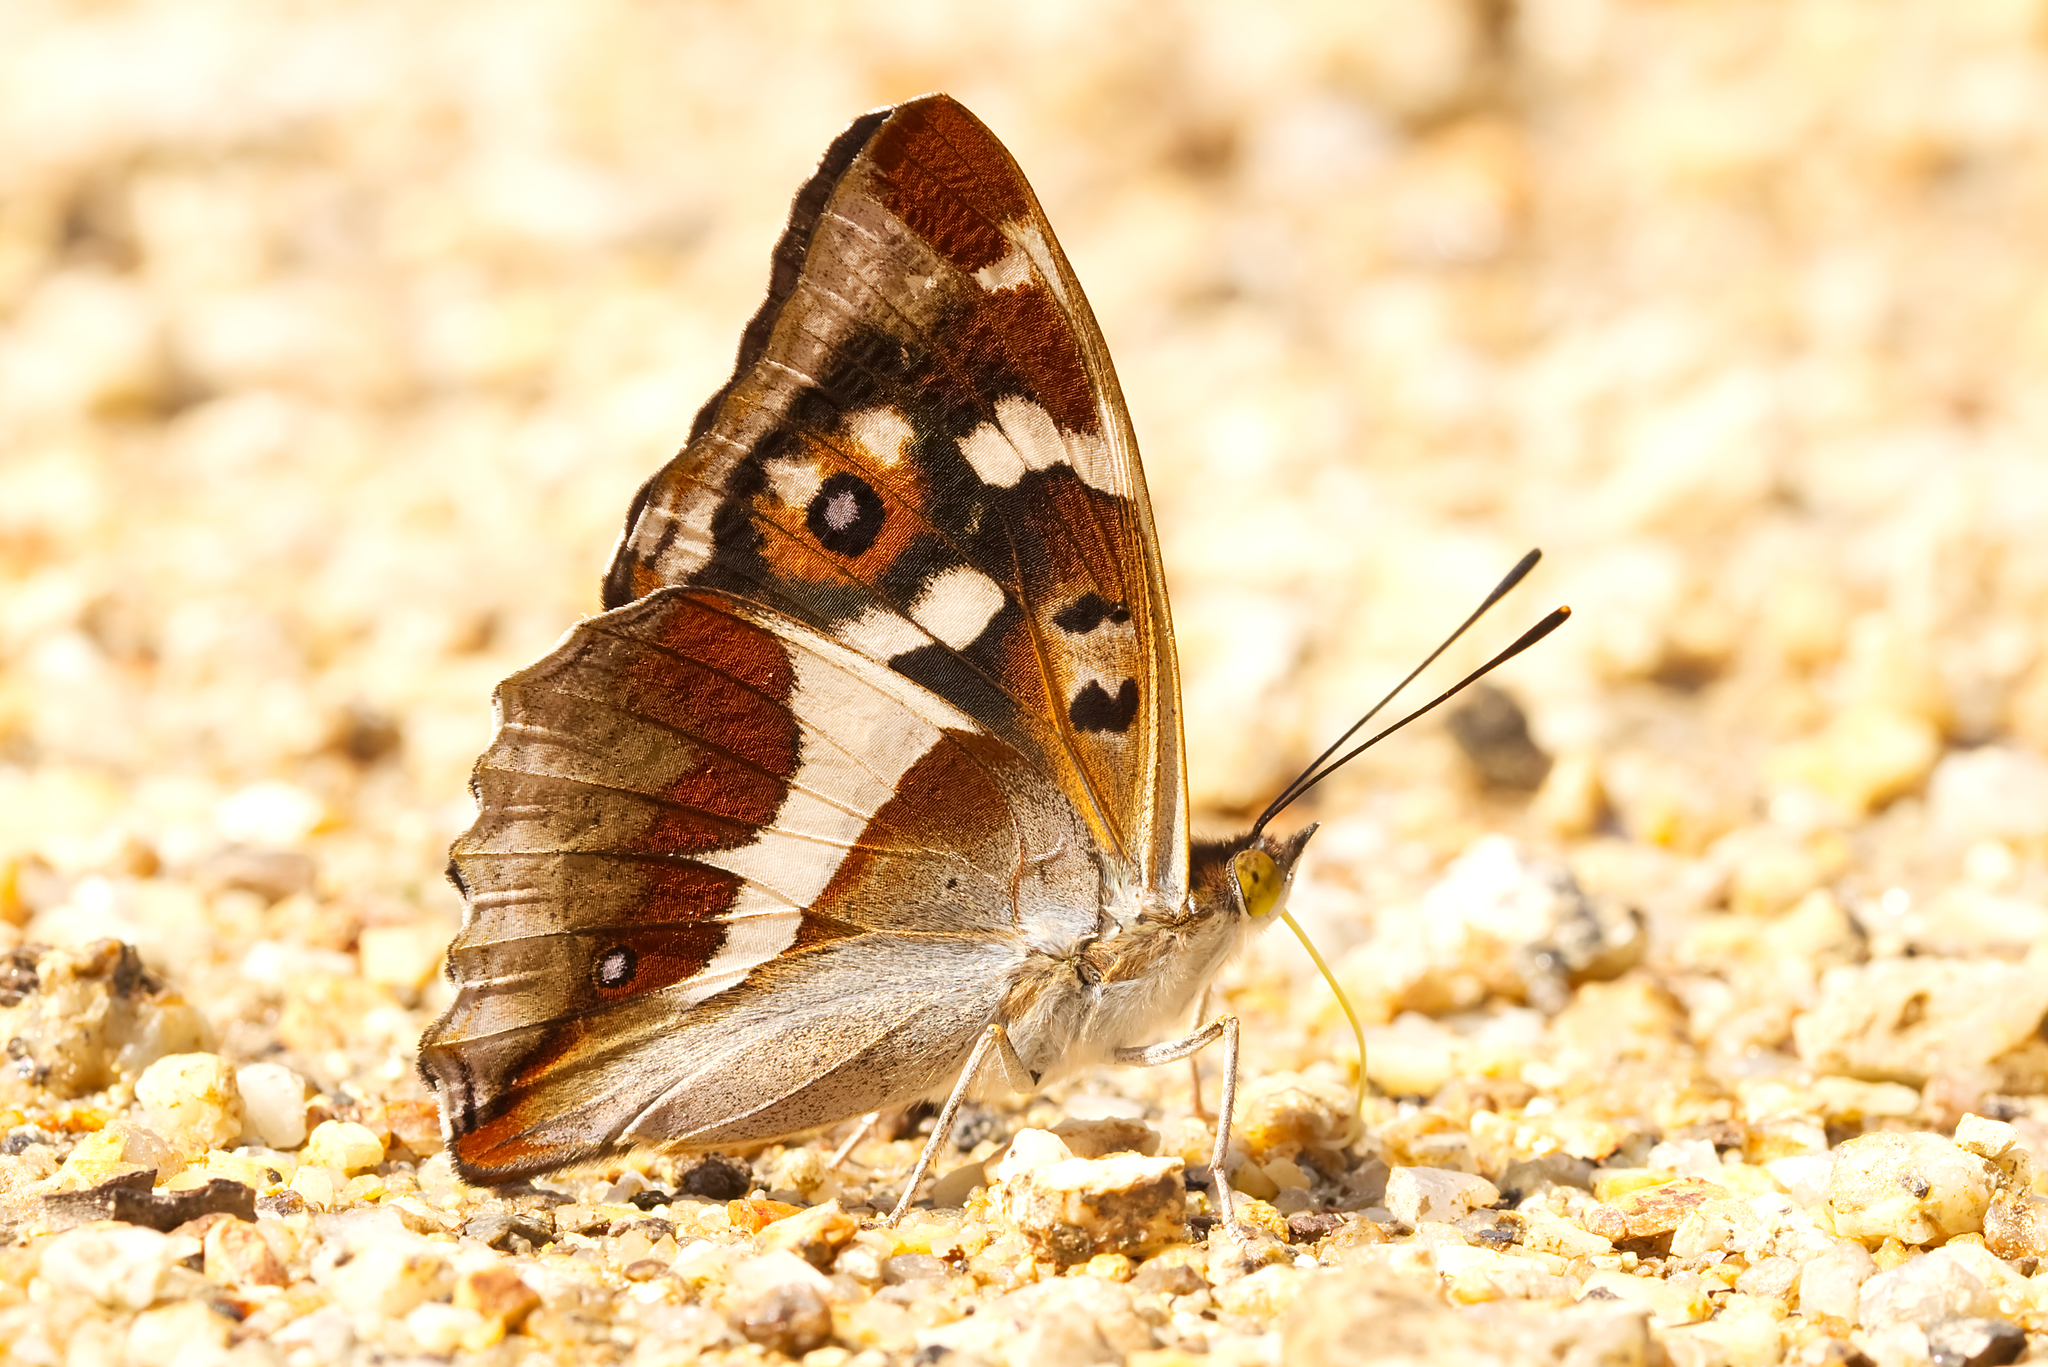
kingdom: Animalia
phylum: Arthropoda
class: Insecta
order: Lepidoptera
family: Nymphalidae
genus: Apatura
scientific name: Apatura iris
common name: Purple emperor
